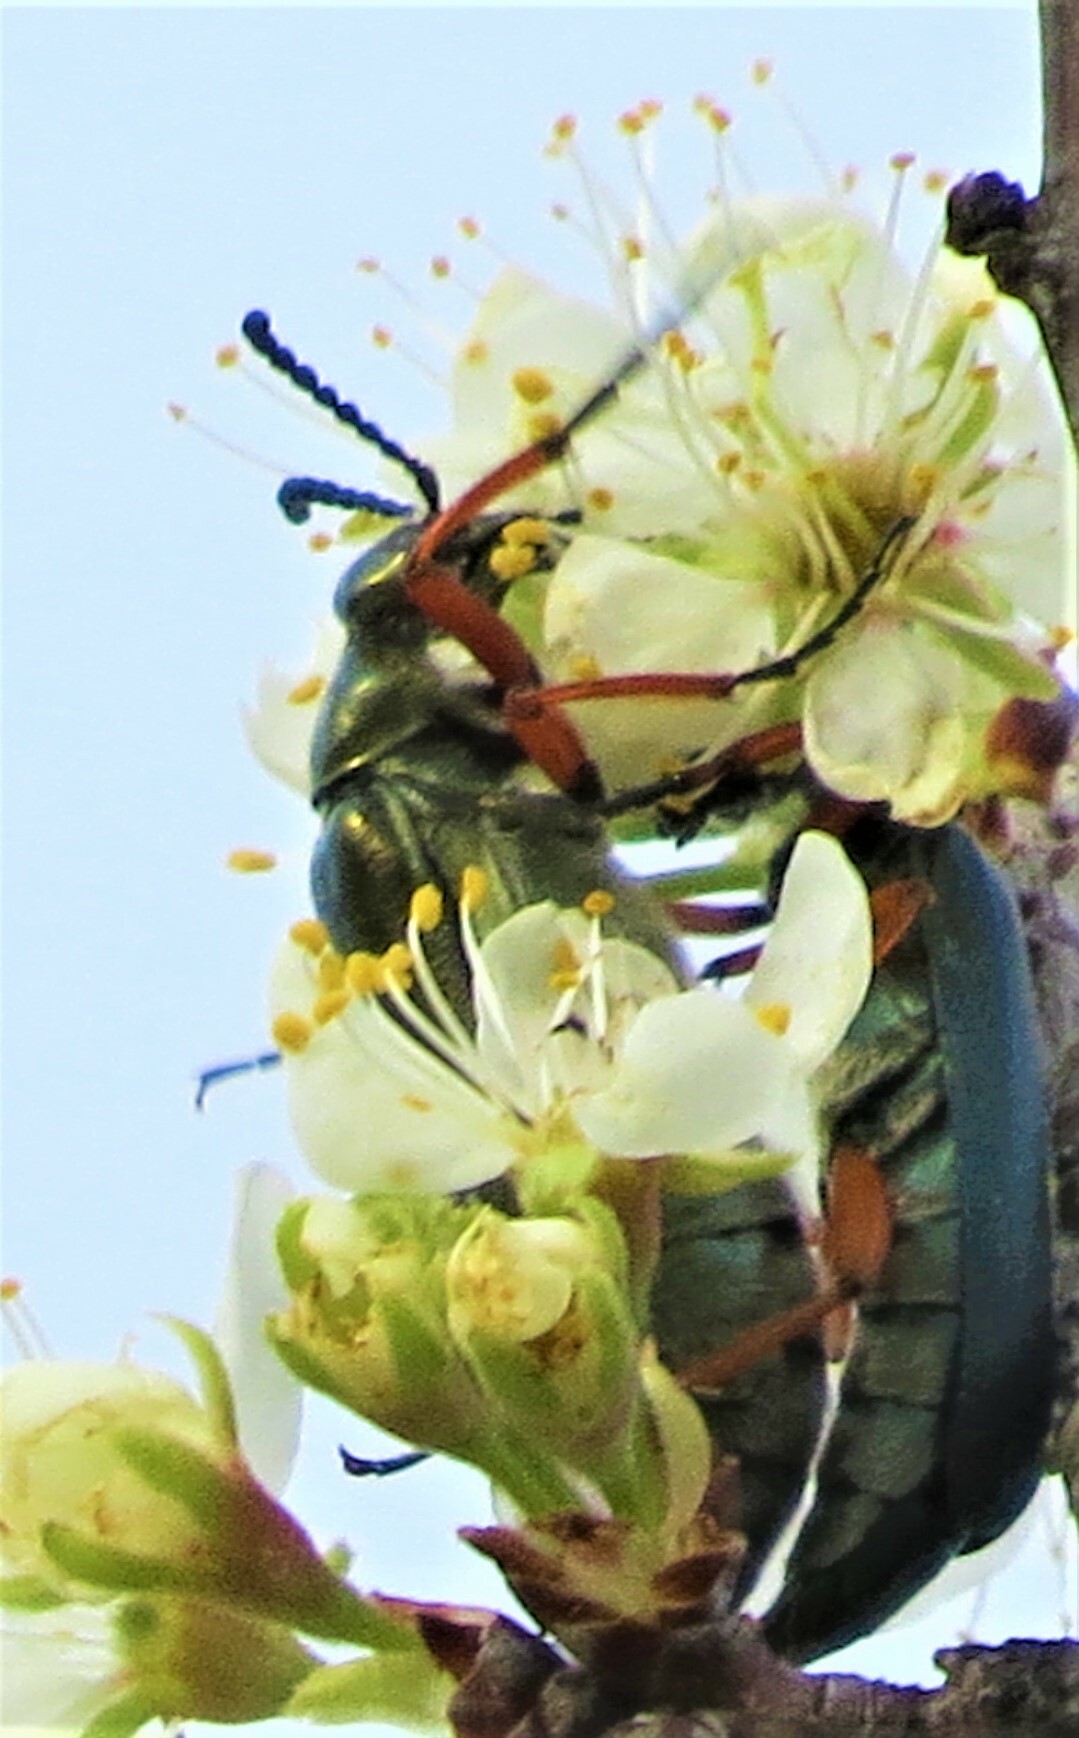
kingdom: Animalia
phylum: Arthropoda
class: Insecta
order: Coleoptera
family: Meloidae
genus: Lytta
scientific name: Lytta aenea
